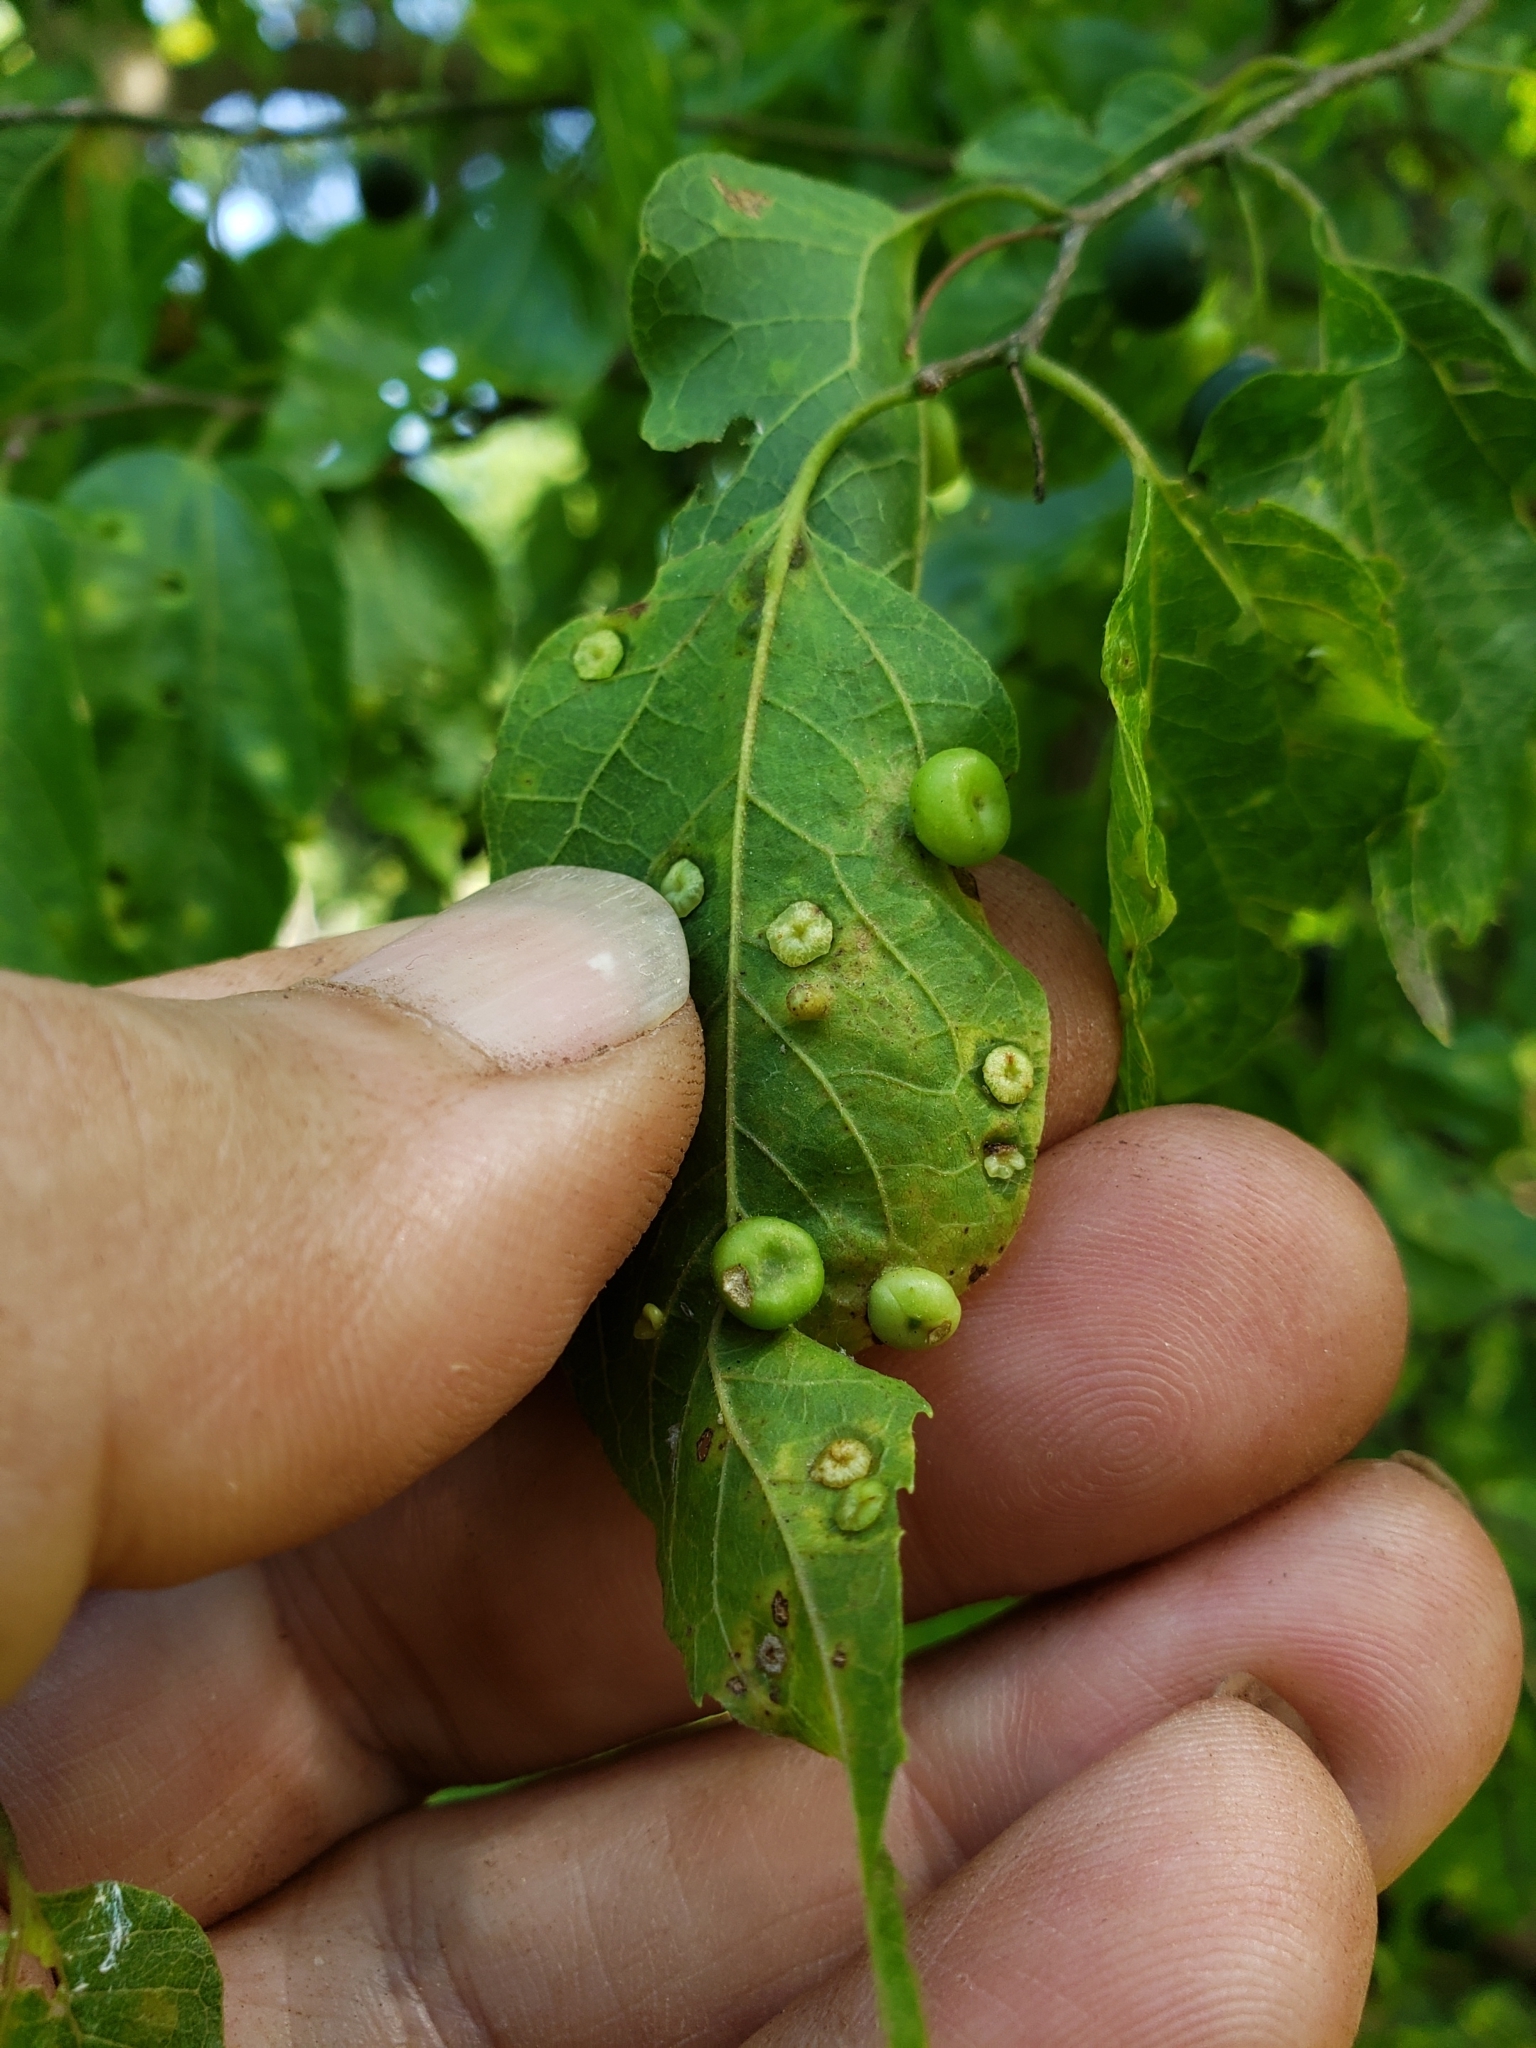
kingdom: Animalia
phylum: Arthropoda
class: Insecta
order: Hemiptera
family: Aphalaridae
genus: Pachypsylla
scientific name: Pachypsylla celtidismamma
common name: Hackberry nipplegall psyllid
